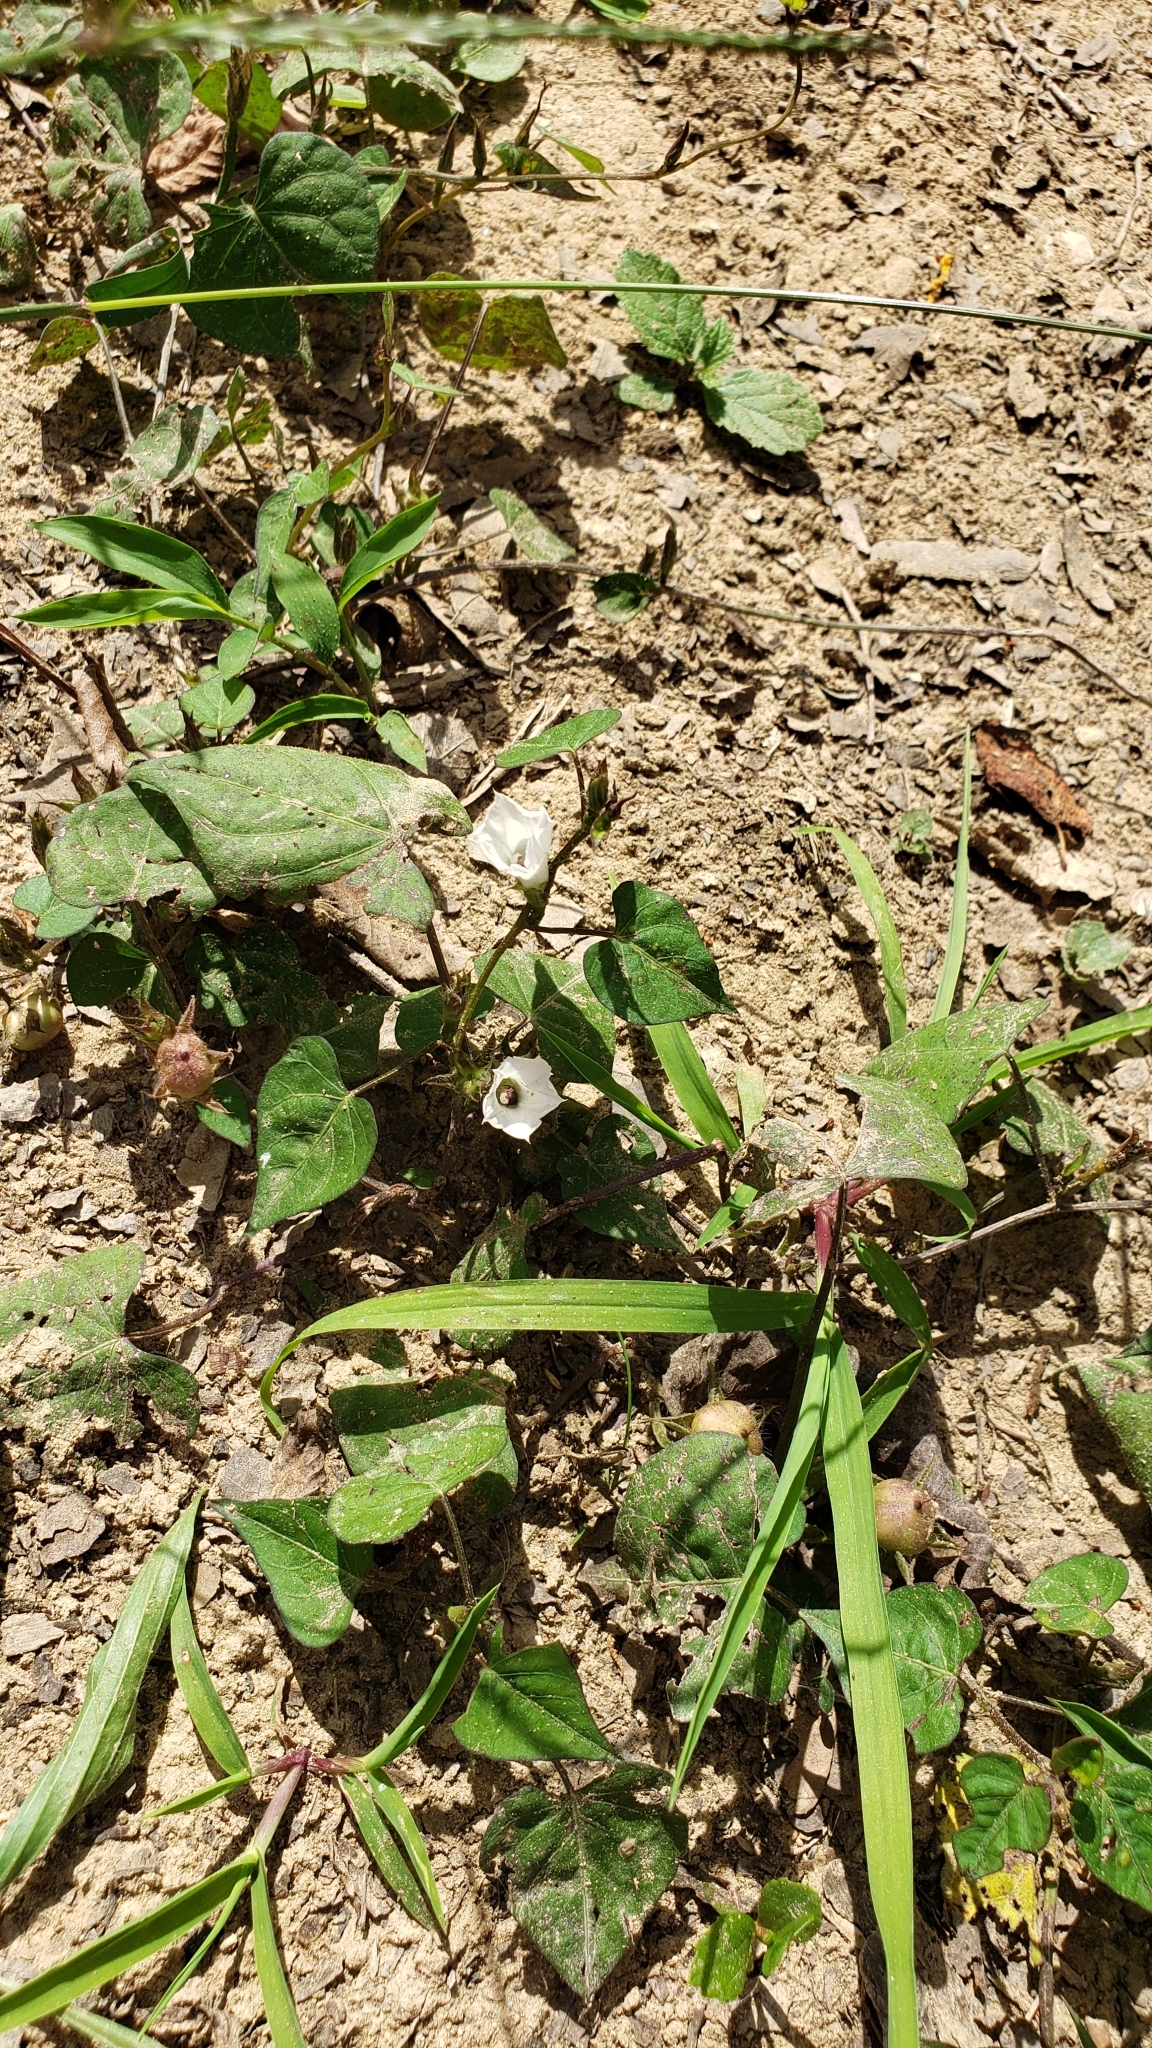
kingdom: Plantae
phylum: Tracheophyta
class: Magnoliopsida
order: Solanales
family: Convolvulaceae
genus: Ipomoea
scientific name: Ipomoea lacunosa
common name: White morning-glory
